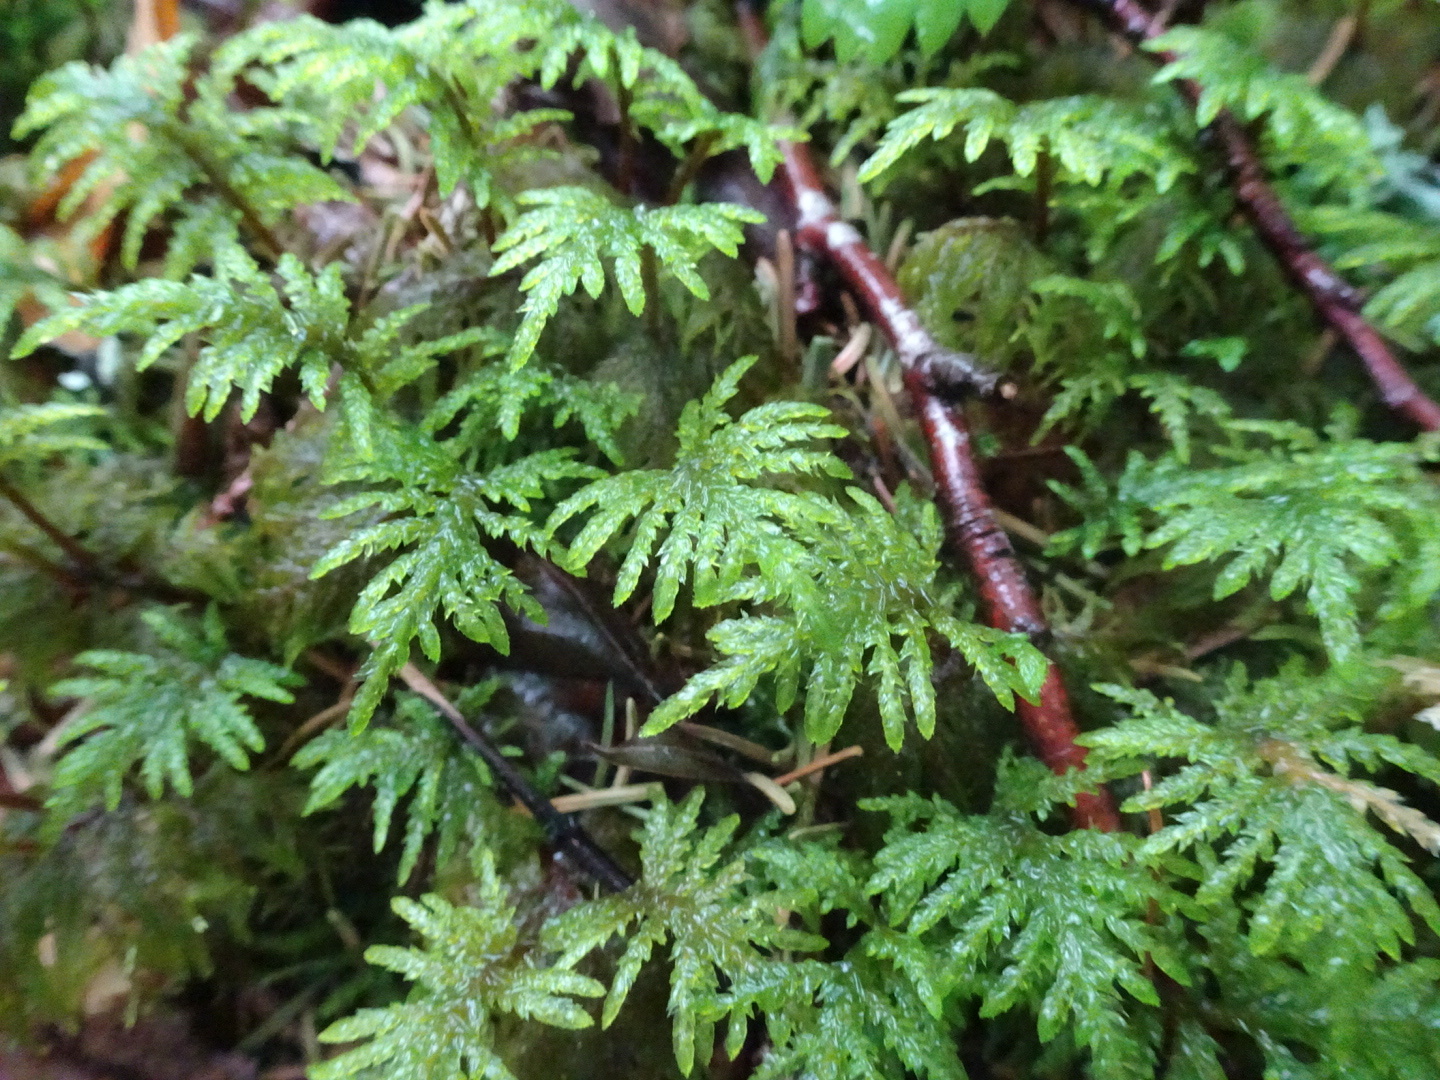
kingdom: Plantae
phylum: Bryophyta
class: Bryopsida
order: Hypnales
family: Hylocomiaceae
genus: Hylocomium
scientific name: Hylocomium splendens
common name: Stairstep moss
